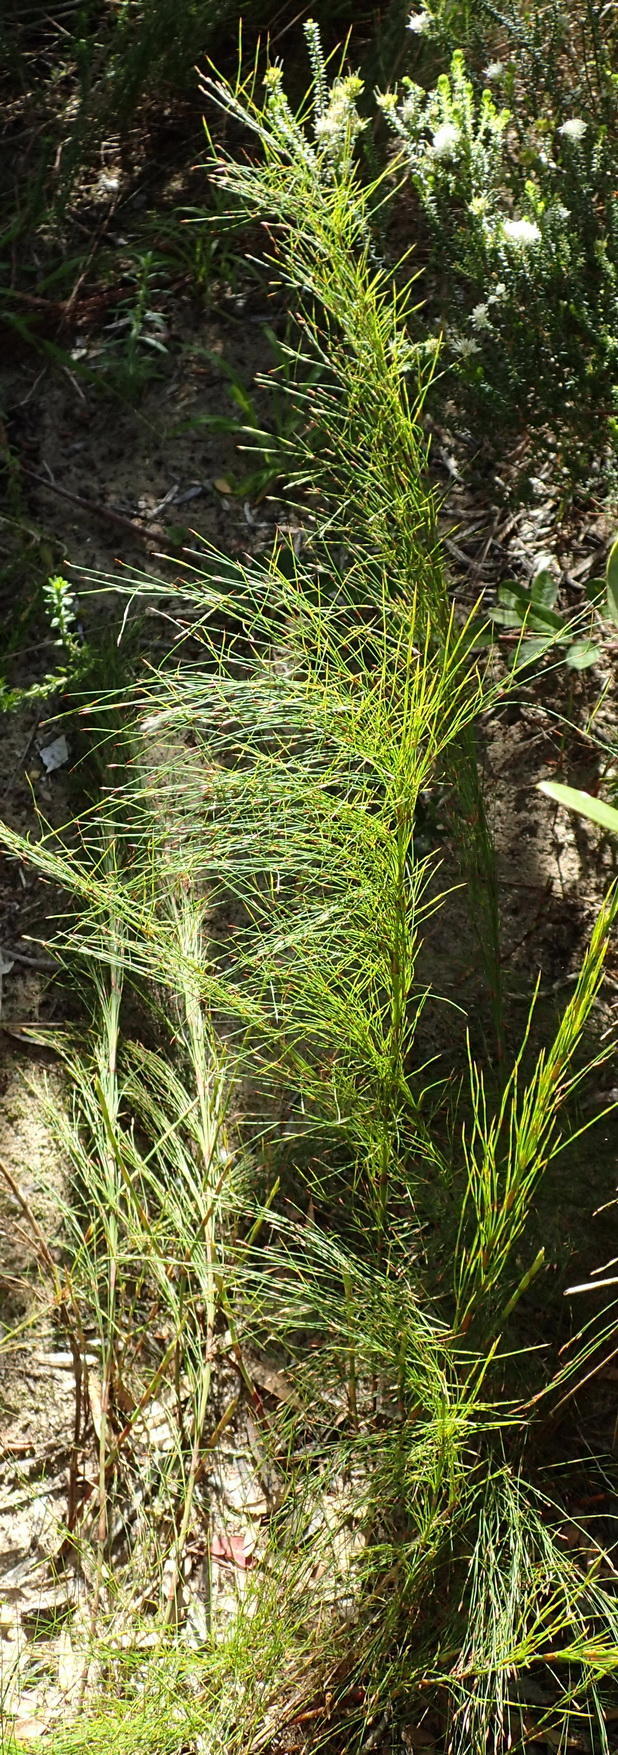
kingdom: Plantae
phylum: Tracheophyta
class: Liliopsida
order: Poales
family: Restionaceae
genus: Restio
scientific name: Restio leptoclados
